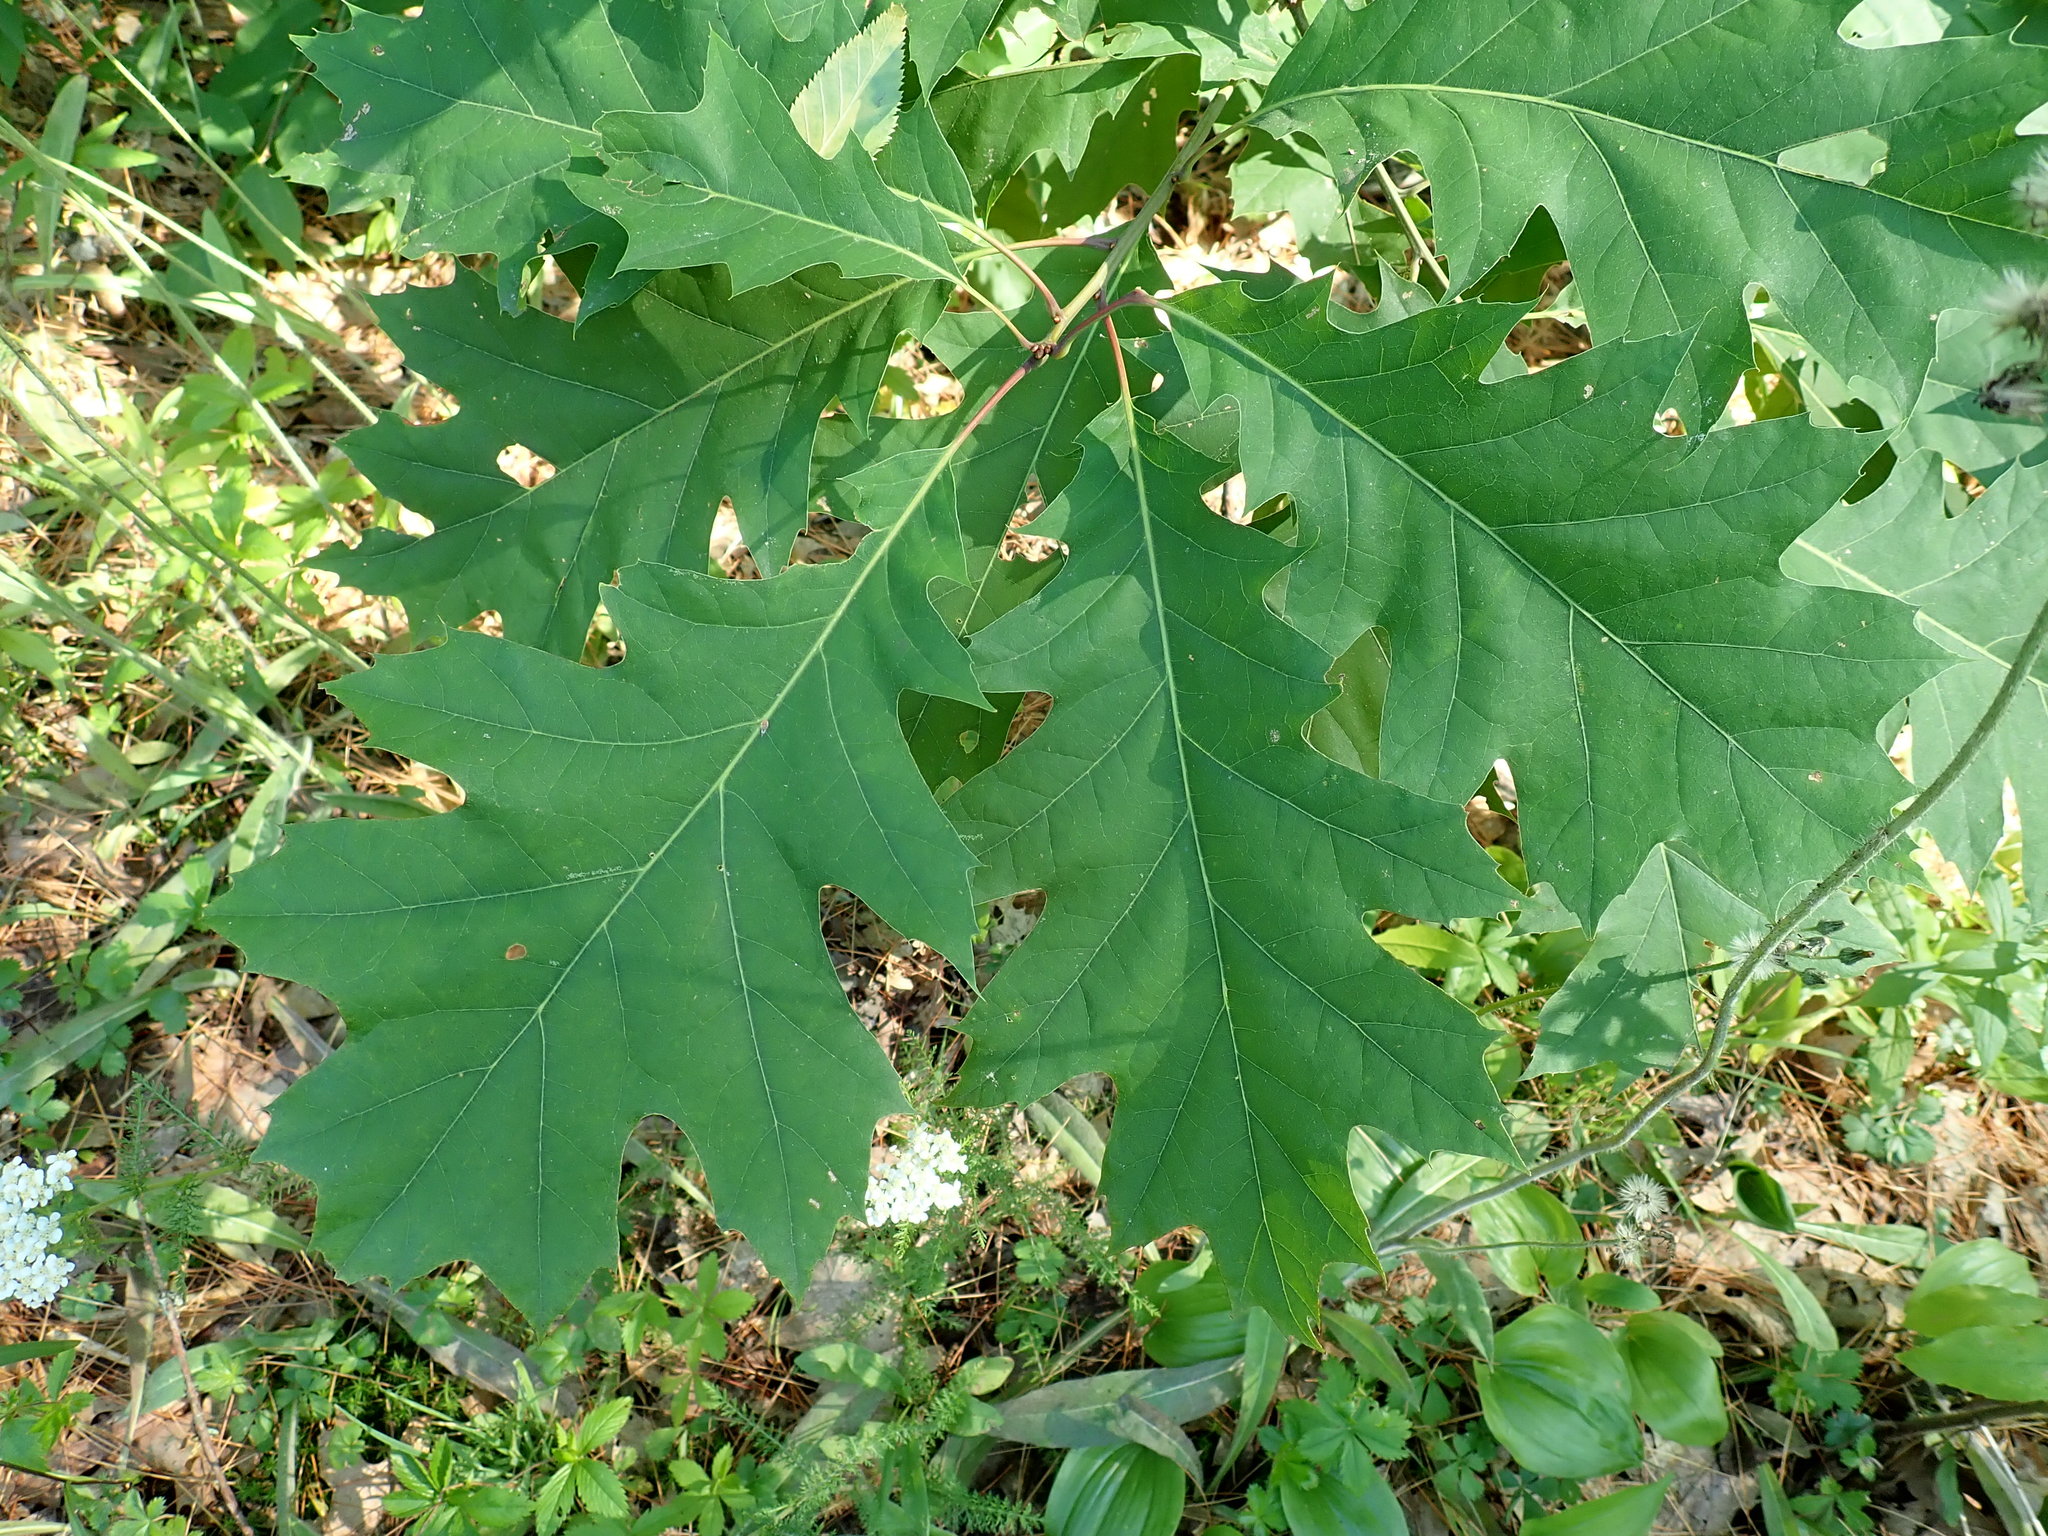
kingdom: Plantae
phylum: Tracheophyta
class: Magnoliopsida
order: Fagales
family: Fagaceae
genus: Quercus
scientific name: Quercus rubra
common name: Red oak
